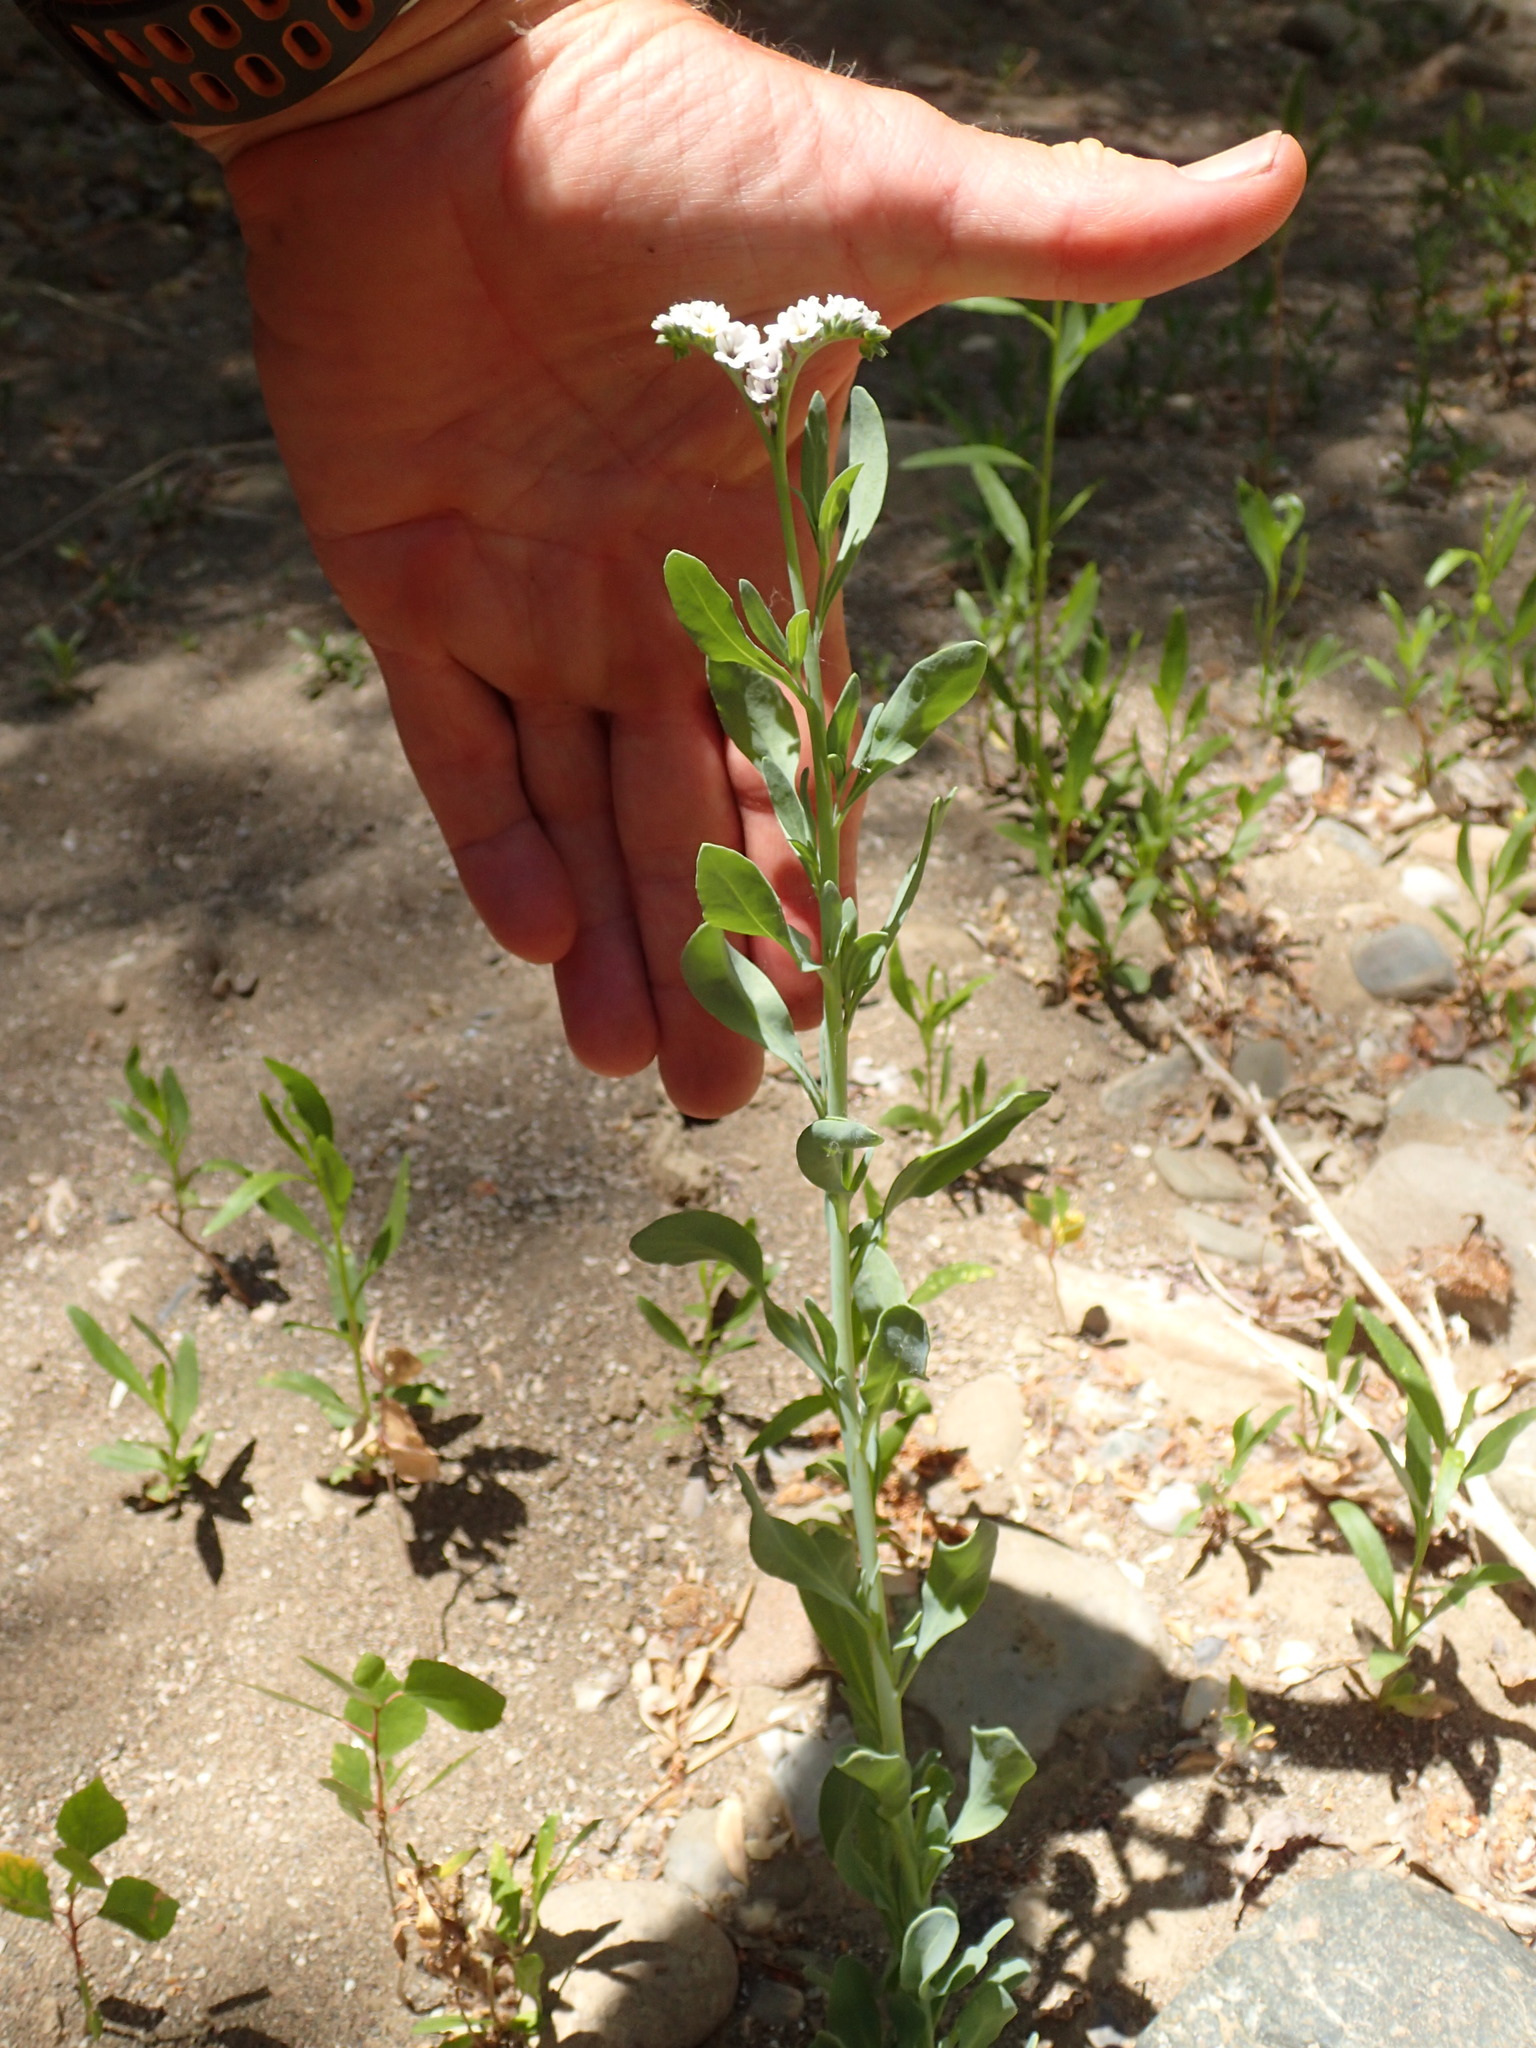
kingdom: Plantae
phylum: Tracheophyta
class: Magnoliopsida
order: Boraginales
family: Heliotropiaceae
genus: Heliotropium
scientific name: Heliotropium curassavicum
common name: Seaside heliotrope
